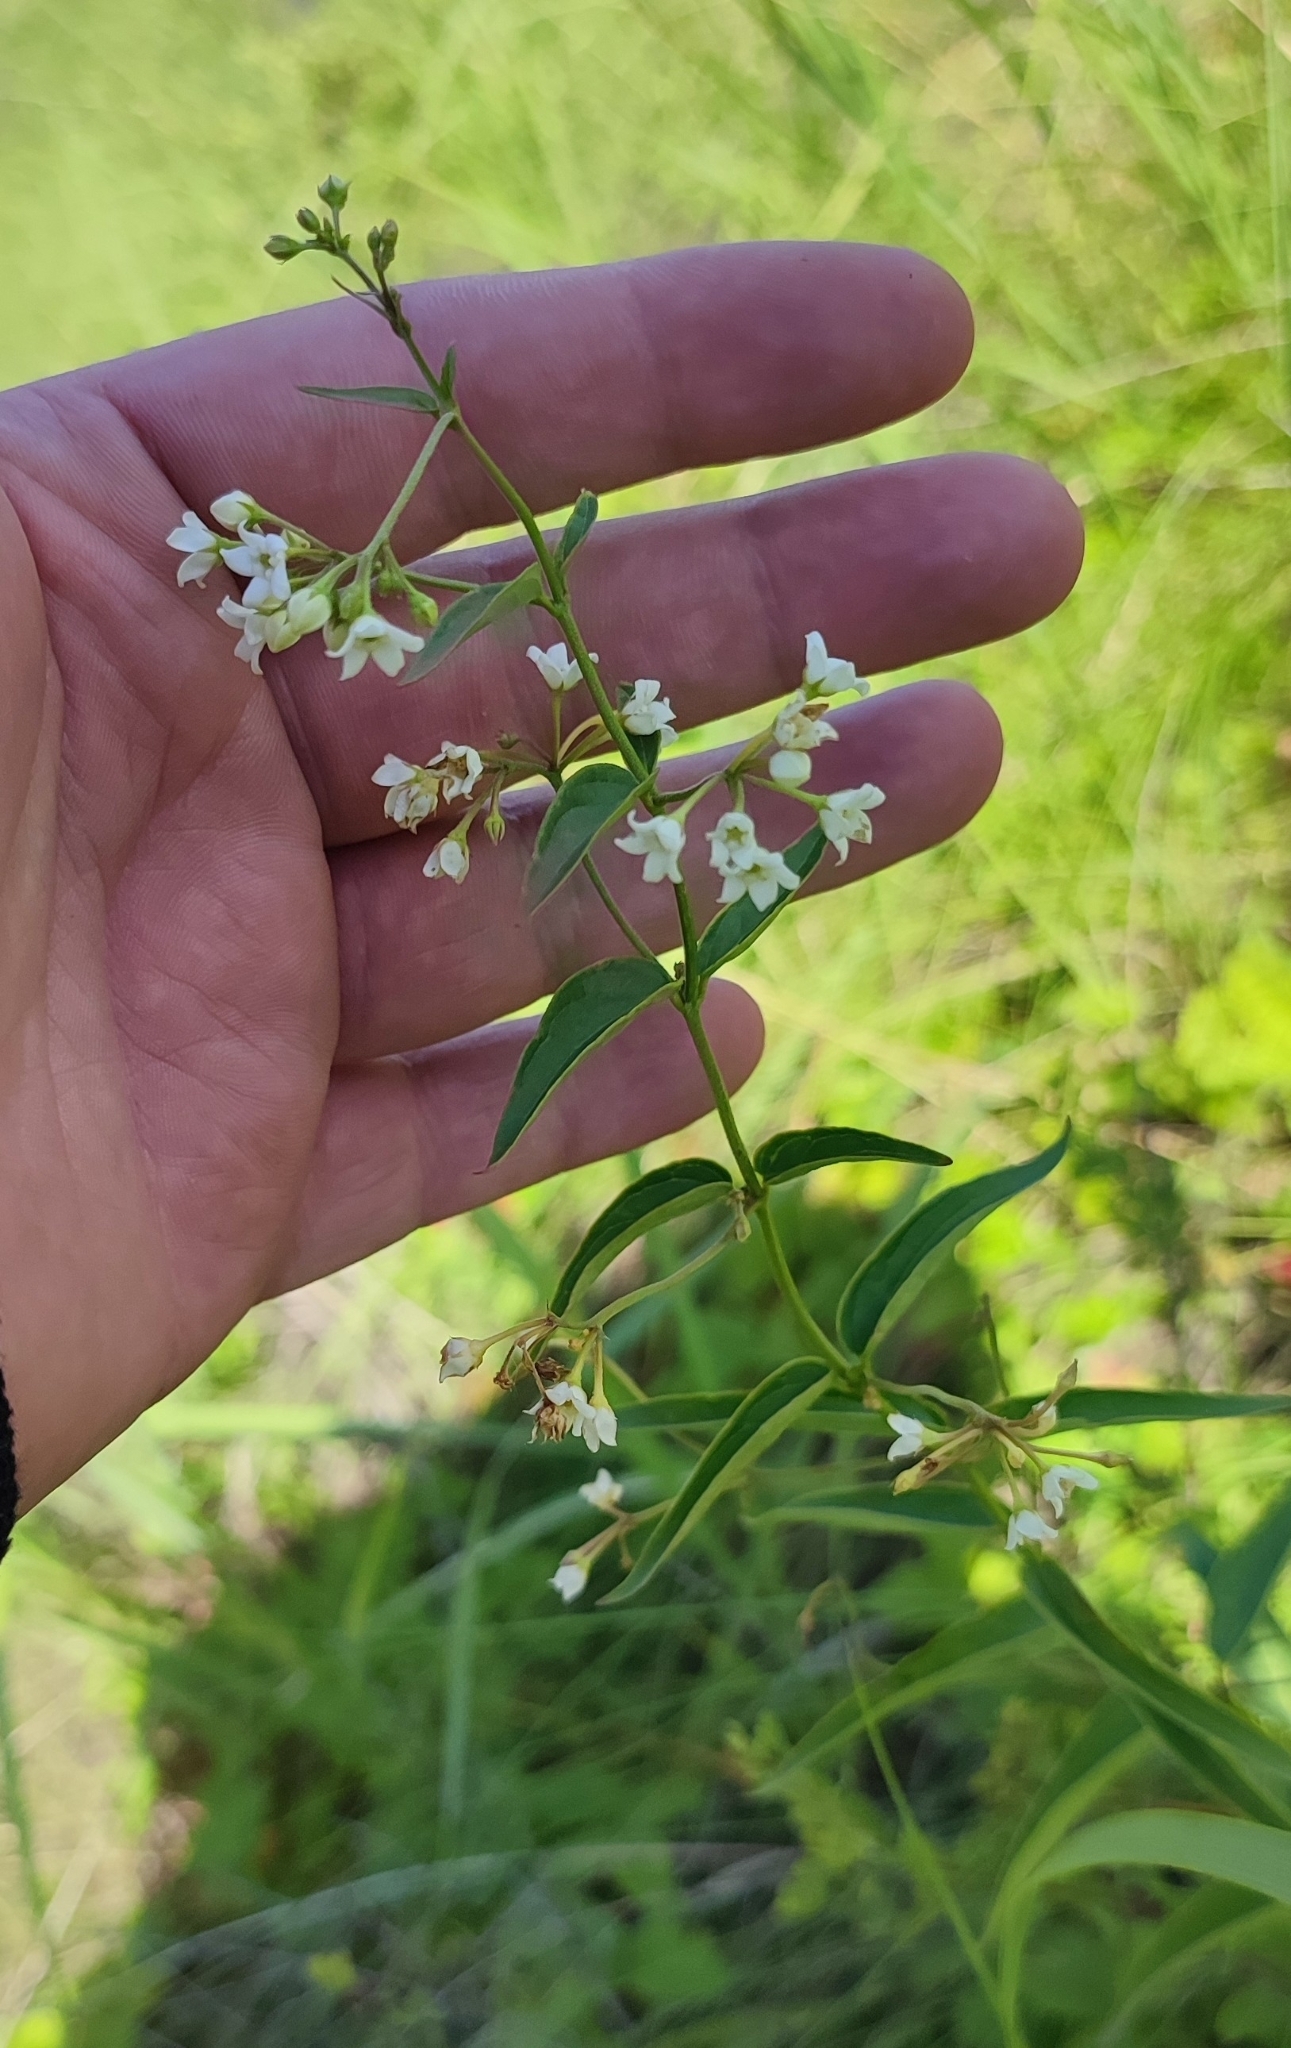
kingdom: Plantae
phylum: Tracheophyta
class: Magnoliopsida
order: Gentianales
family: Apocynaceae
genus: Vincetoxicum
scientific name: Vincetoxicum hirundinaria
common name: White swallowwort
